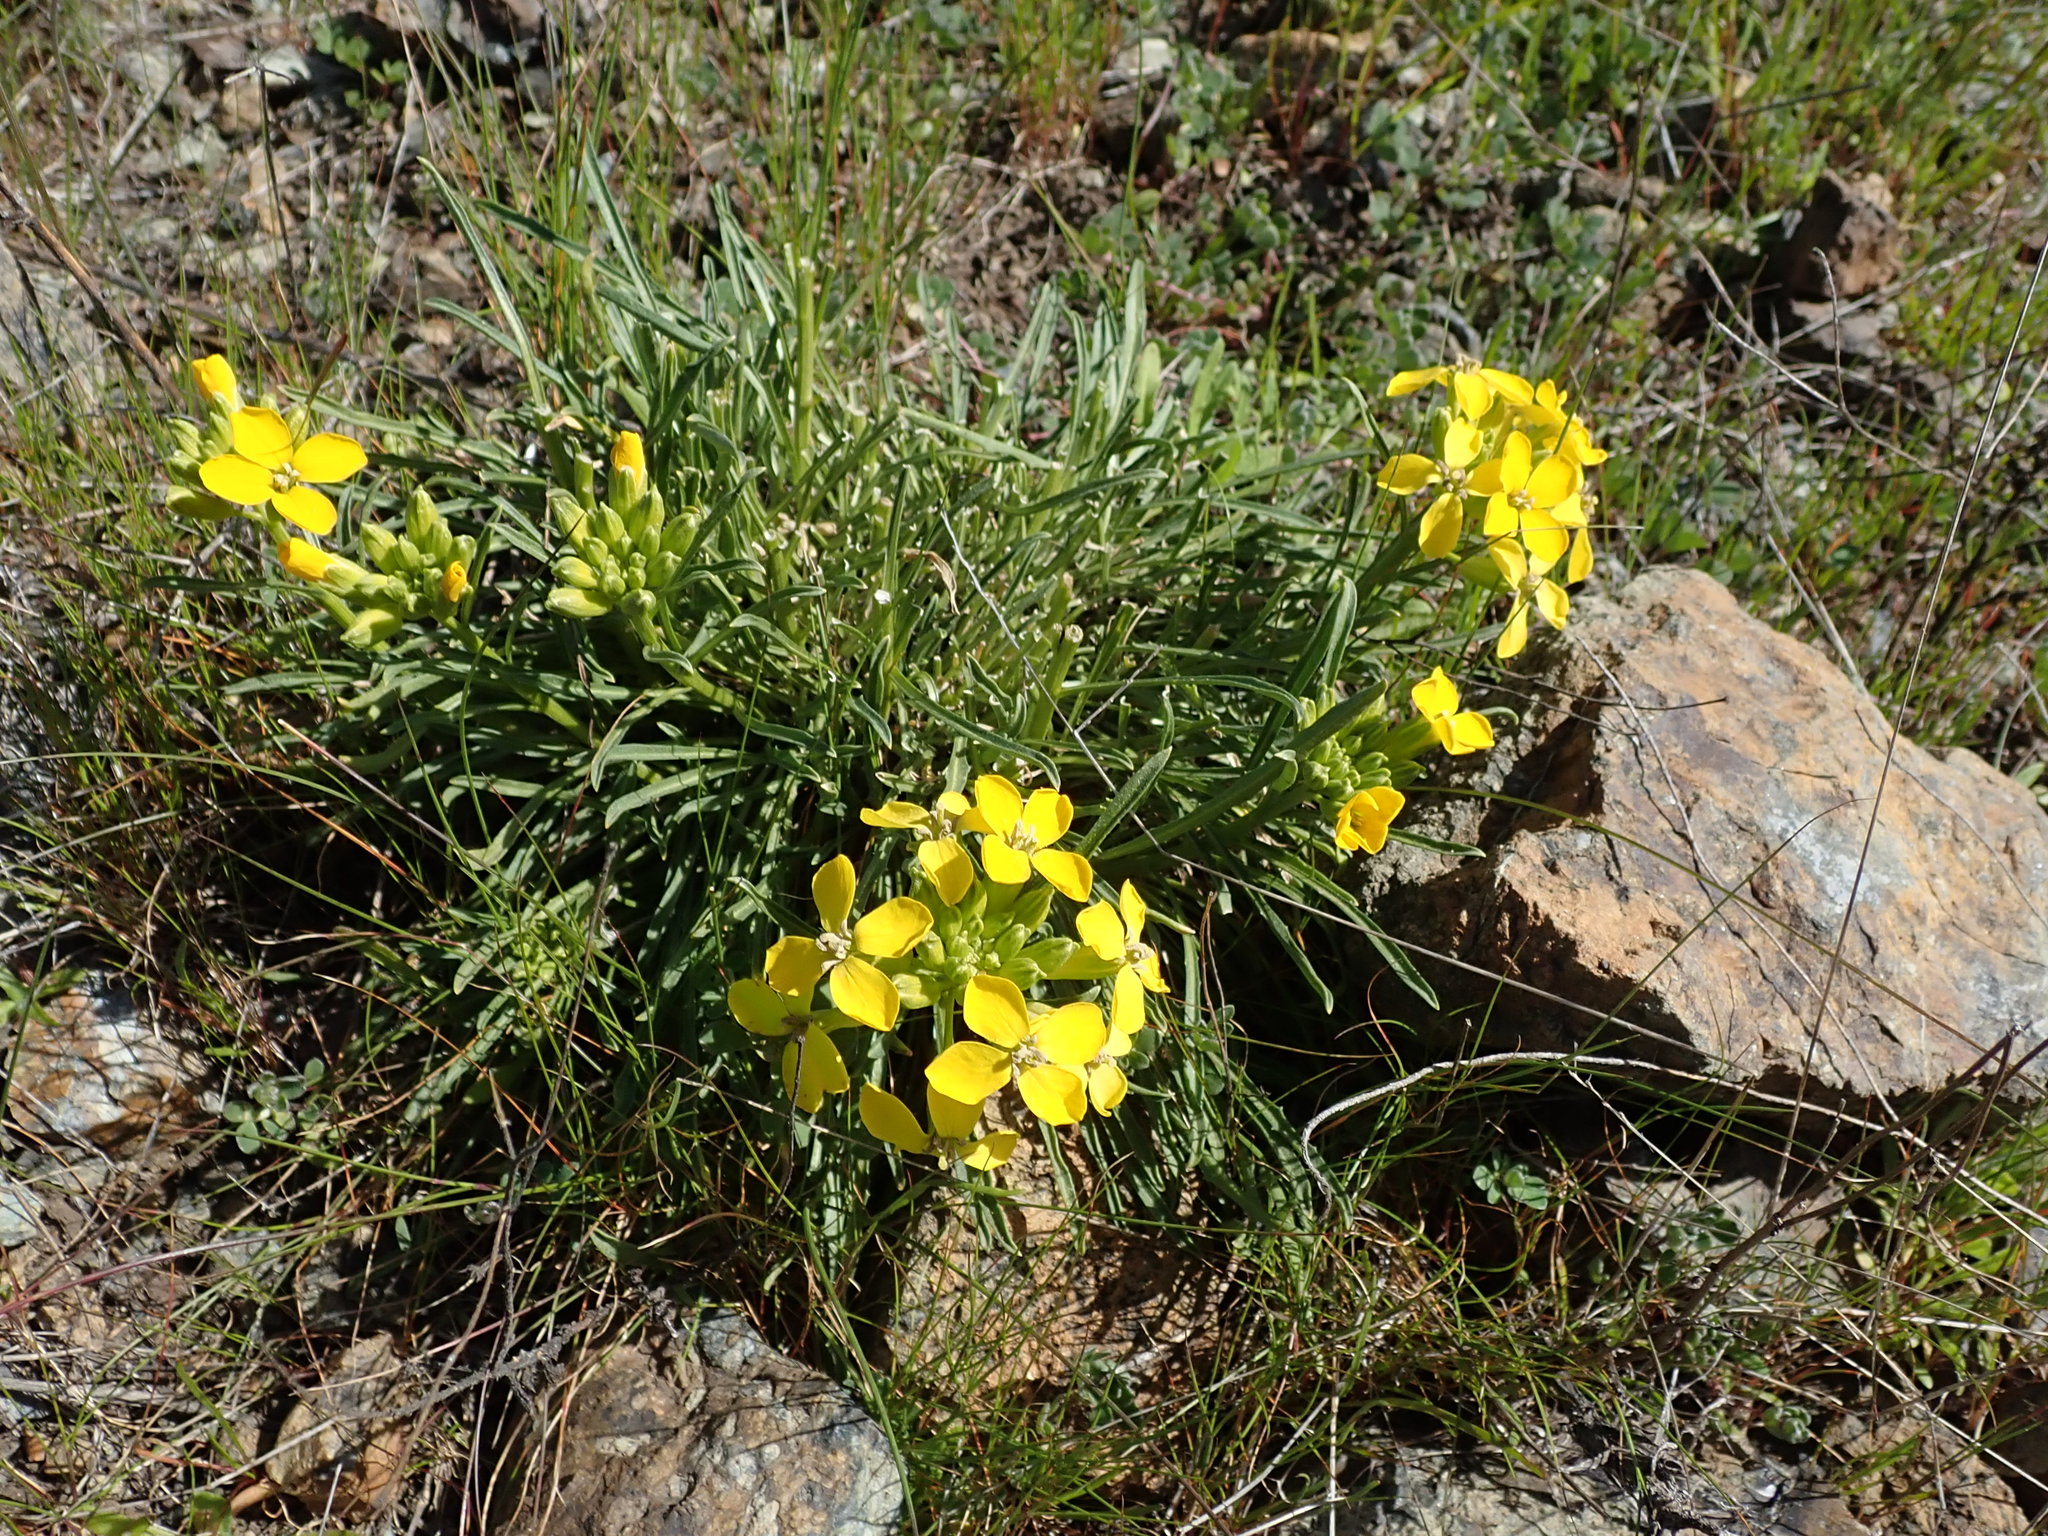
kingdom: Plantae
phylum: Tracheophyta
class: Magnoliopsida
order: Brassicales
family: Brassicaceae
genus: Erysimum
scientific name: Erysimum franciscanum
